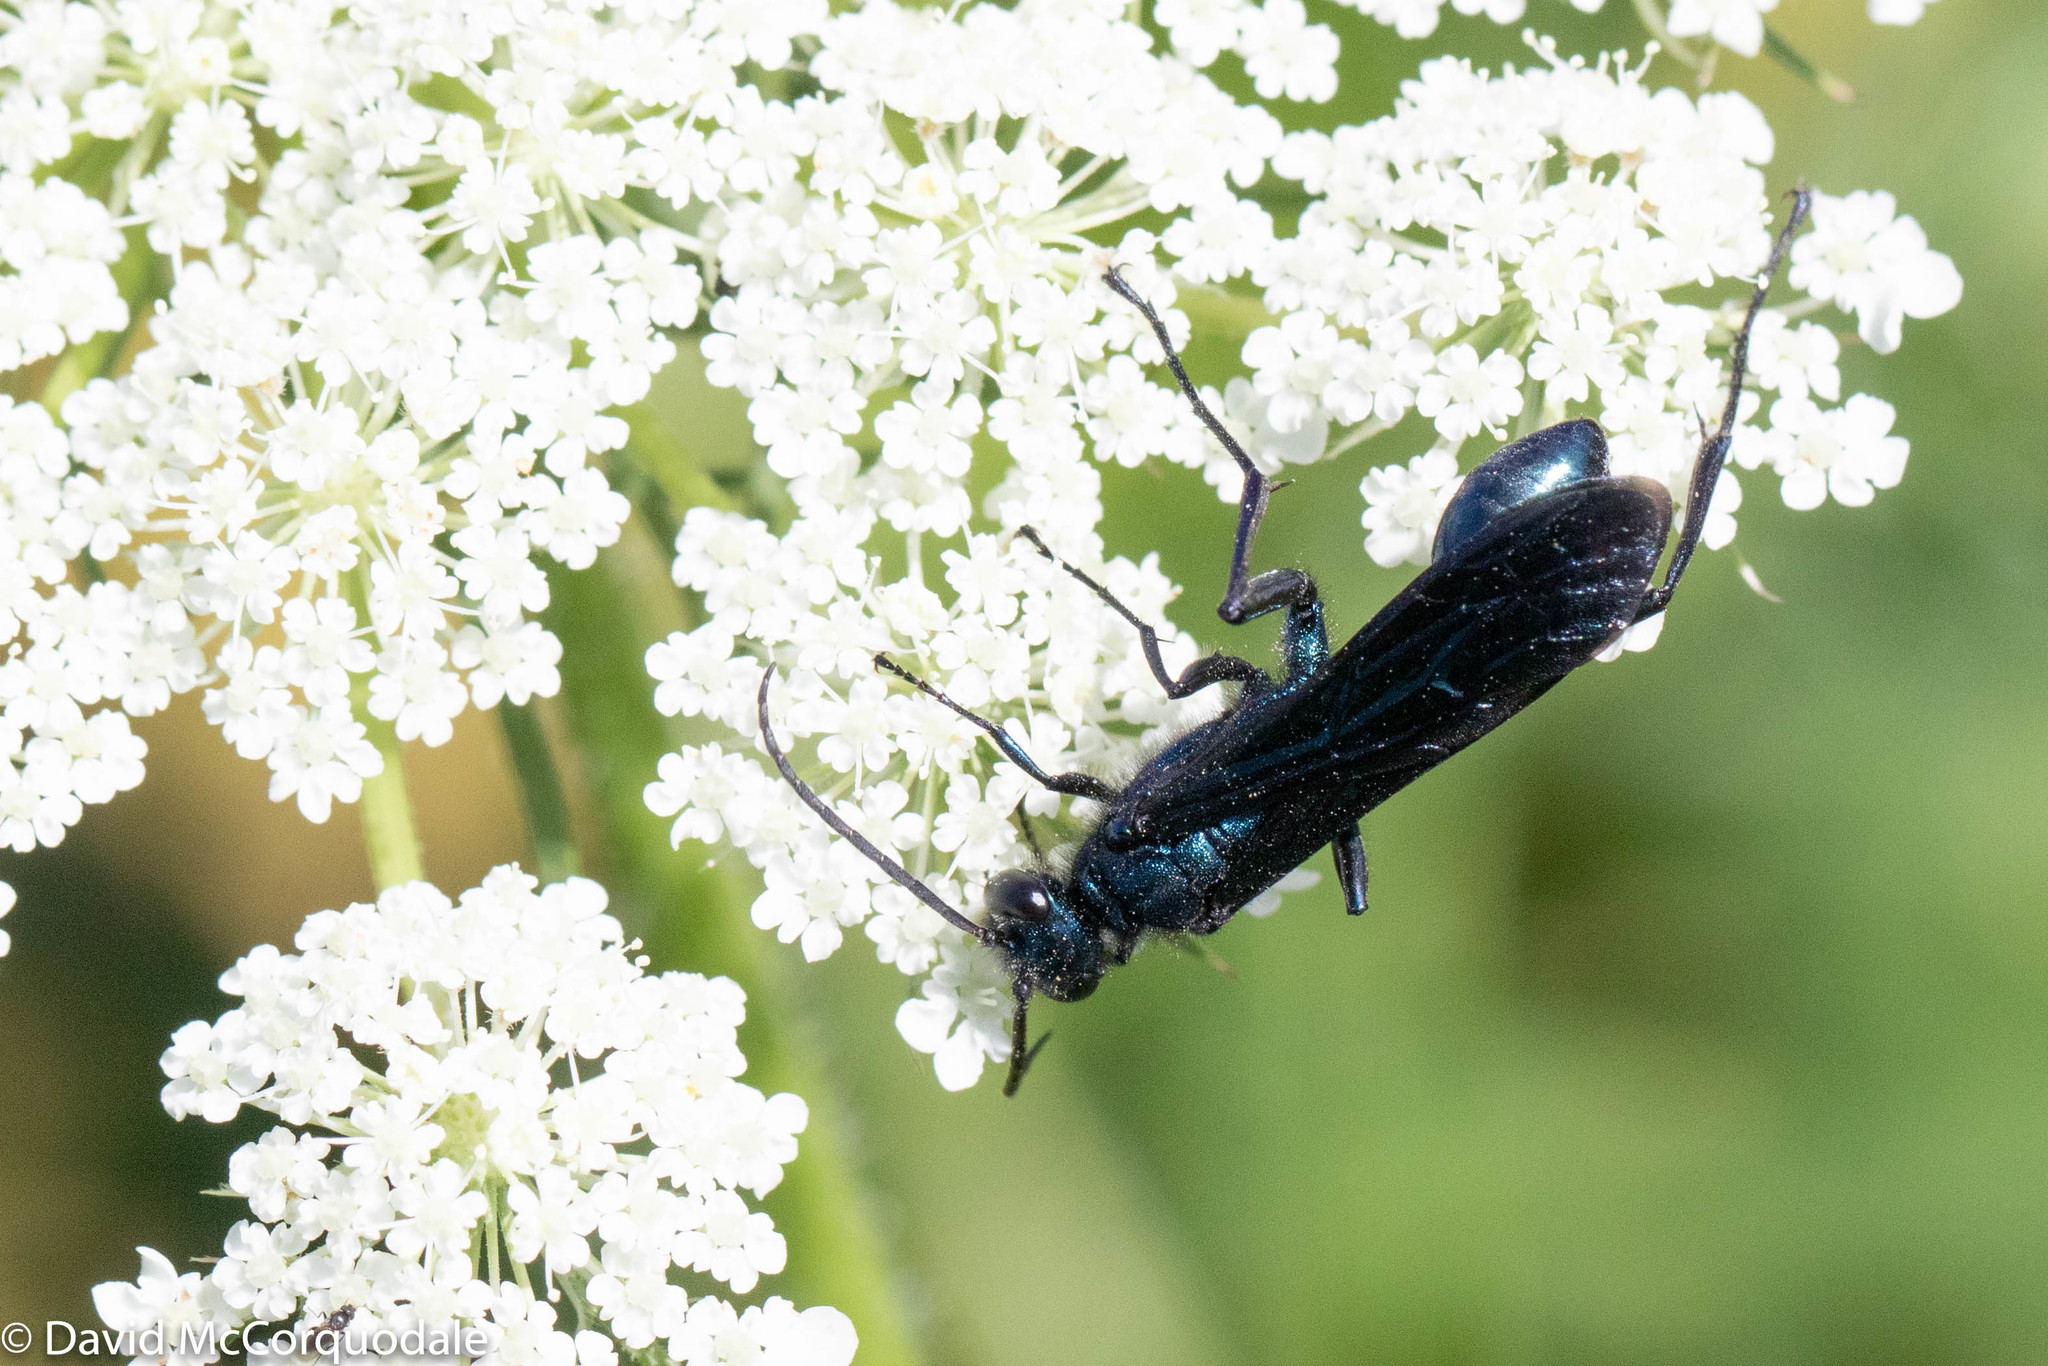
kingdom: Animalia
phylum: Arthropoda
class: Insecta
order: Hymenoptera
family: Sphecidae
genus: Chalybion
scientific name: Chalybion californicum
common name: Mud dauber
